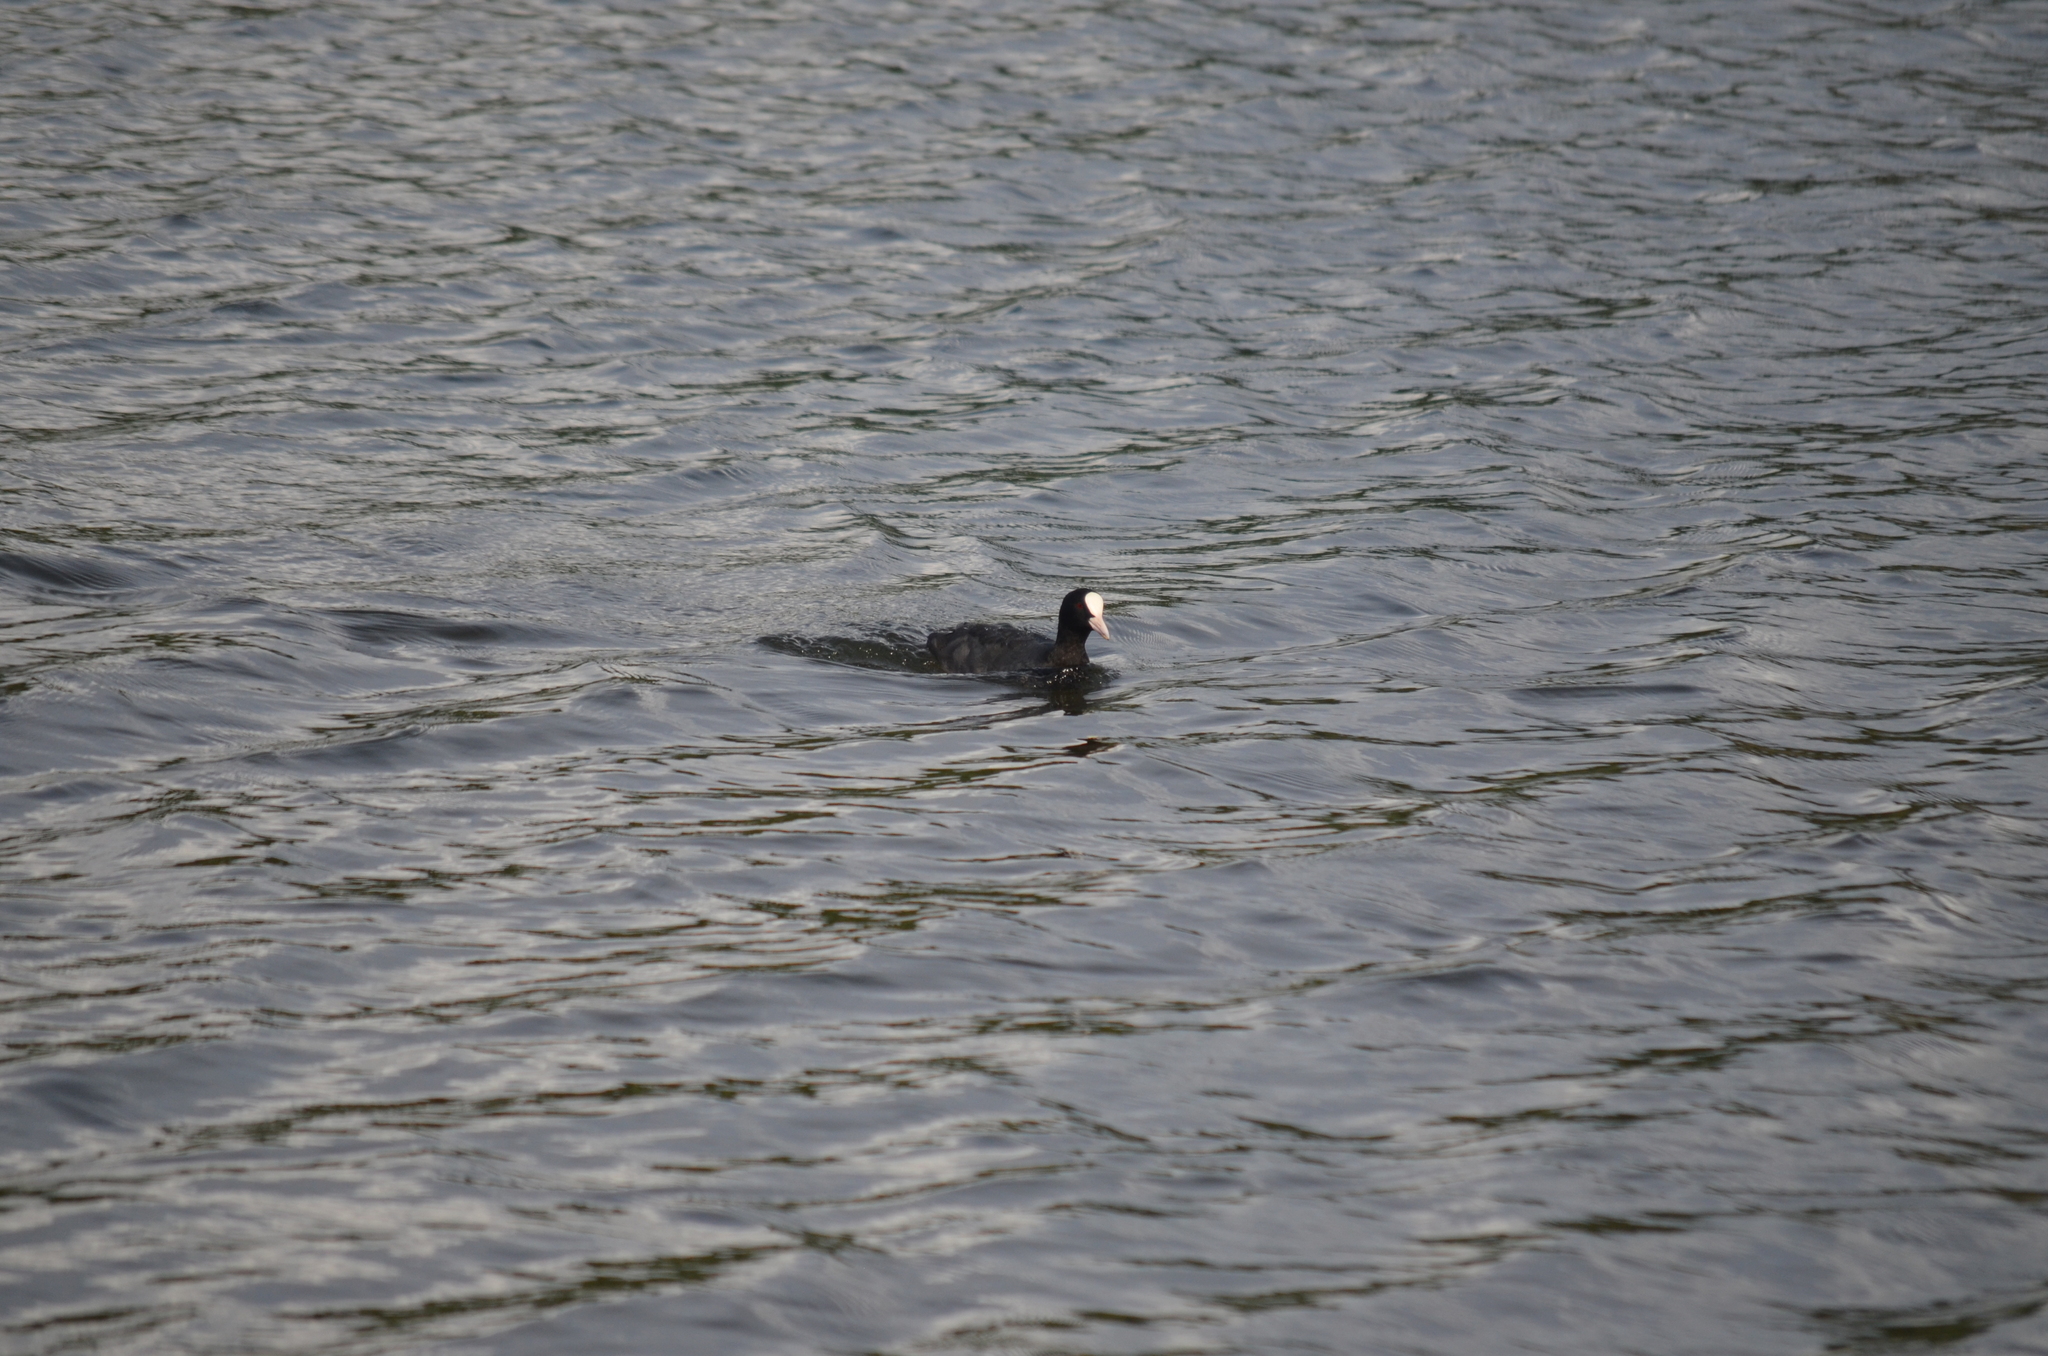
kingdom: Animalia
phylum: Chordata
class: Aves
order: Gruiformes
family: Rallidae
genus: Fulica
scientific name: Fulica atra
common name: Eurasian coot
